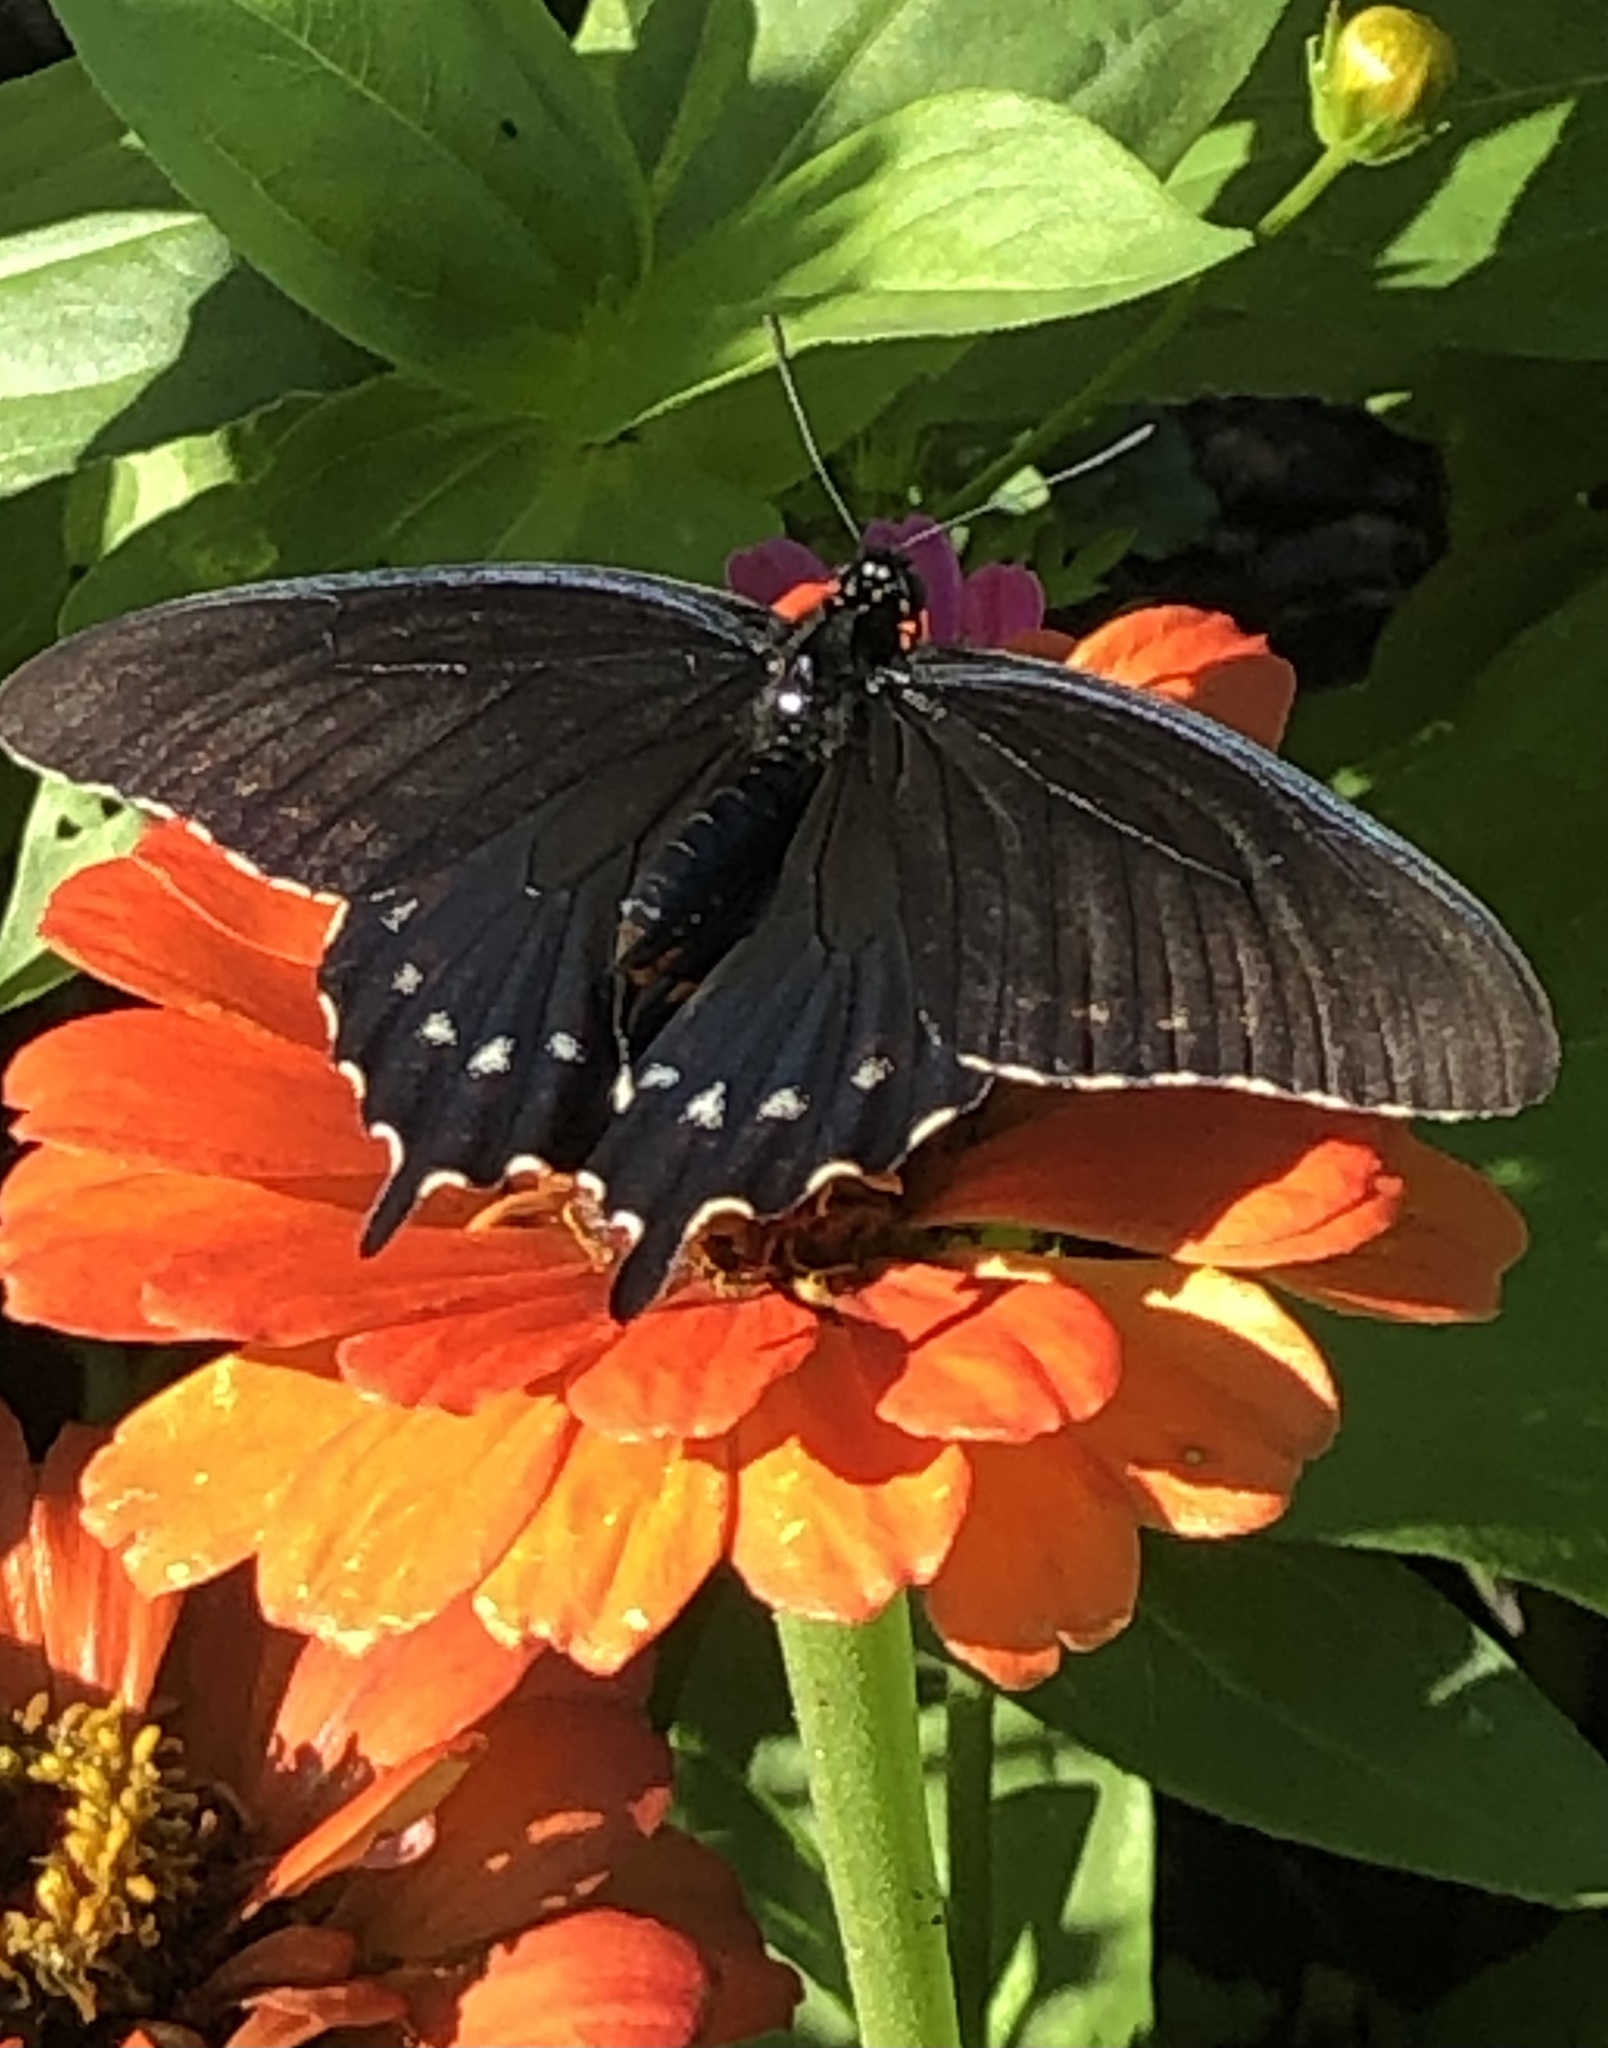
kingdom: Animalia
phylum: Arthropoda
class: Insecta
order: Lepidoptera
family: Papilionidae
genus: Battus
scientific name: Battus philenor
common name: Pipevine swallowtail
